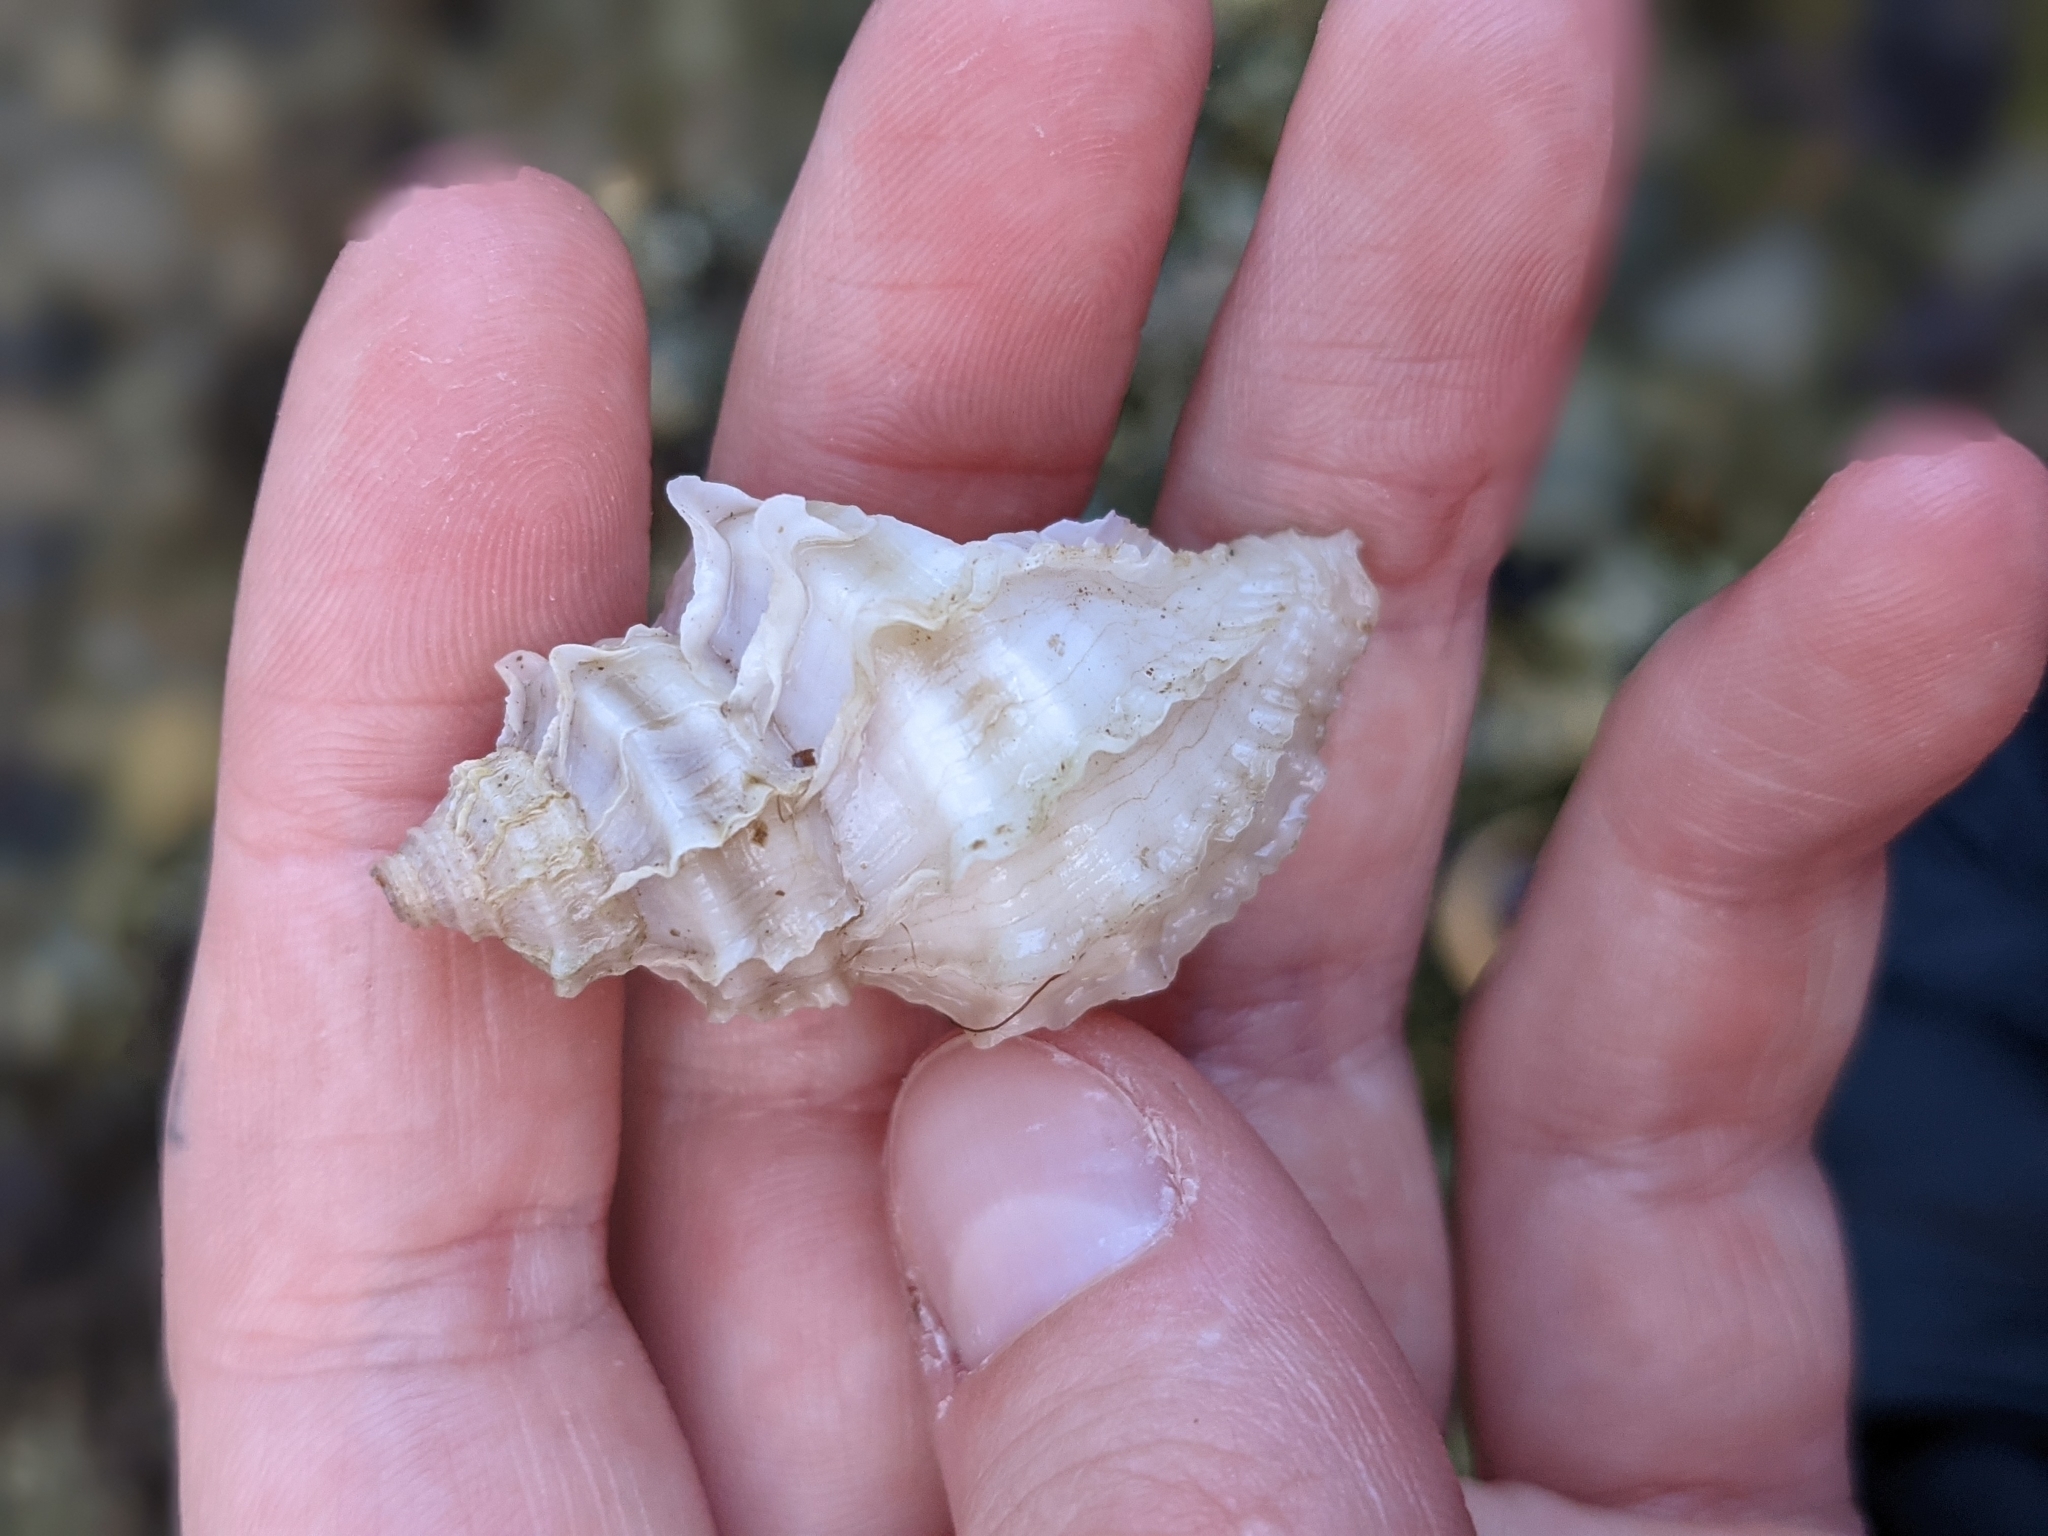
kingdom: Animalia
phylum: Mollusca
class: Gastropoda
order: Neogastropoda
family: Muricidae
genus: Nucella
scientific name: Nucella lamellosa
